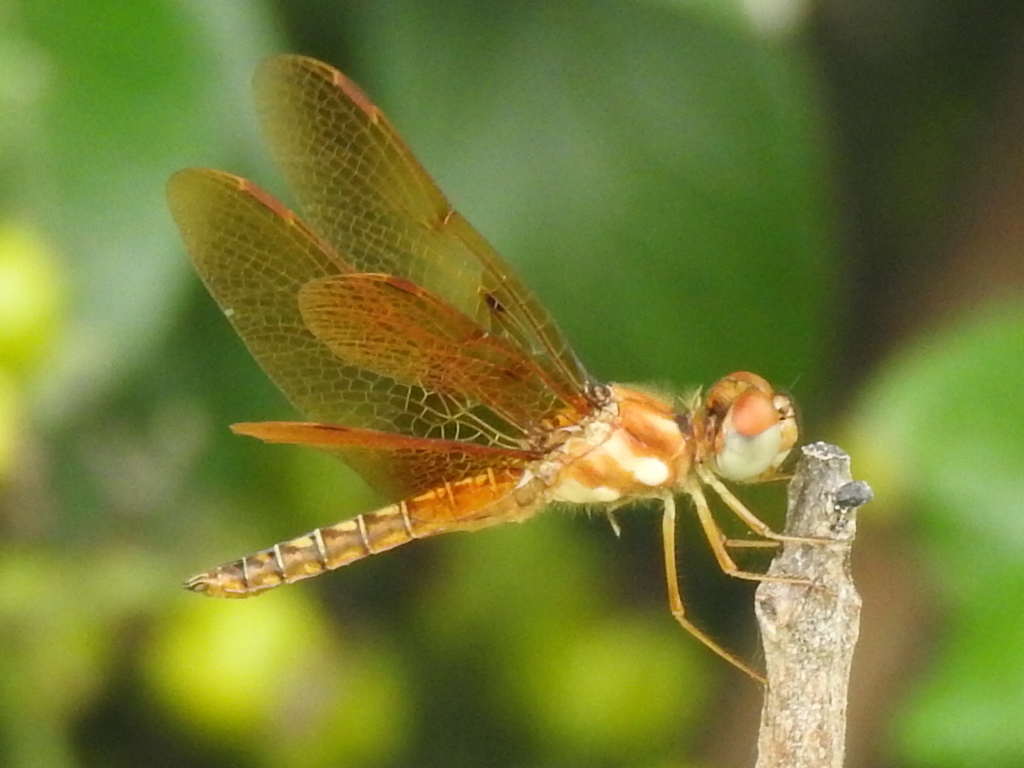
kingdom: Animalia
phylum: Arthropoda
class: Insecta
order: Odonata
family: Libellulidae
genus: Perithemis
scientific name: Perithemis tenera
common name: Eastern amberwing
